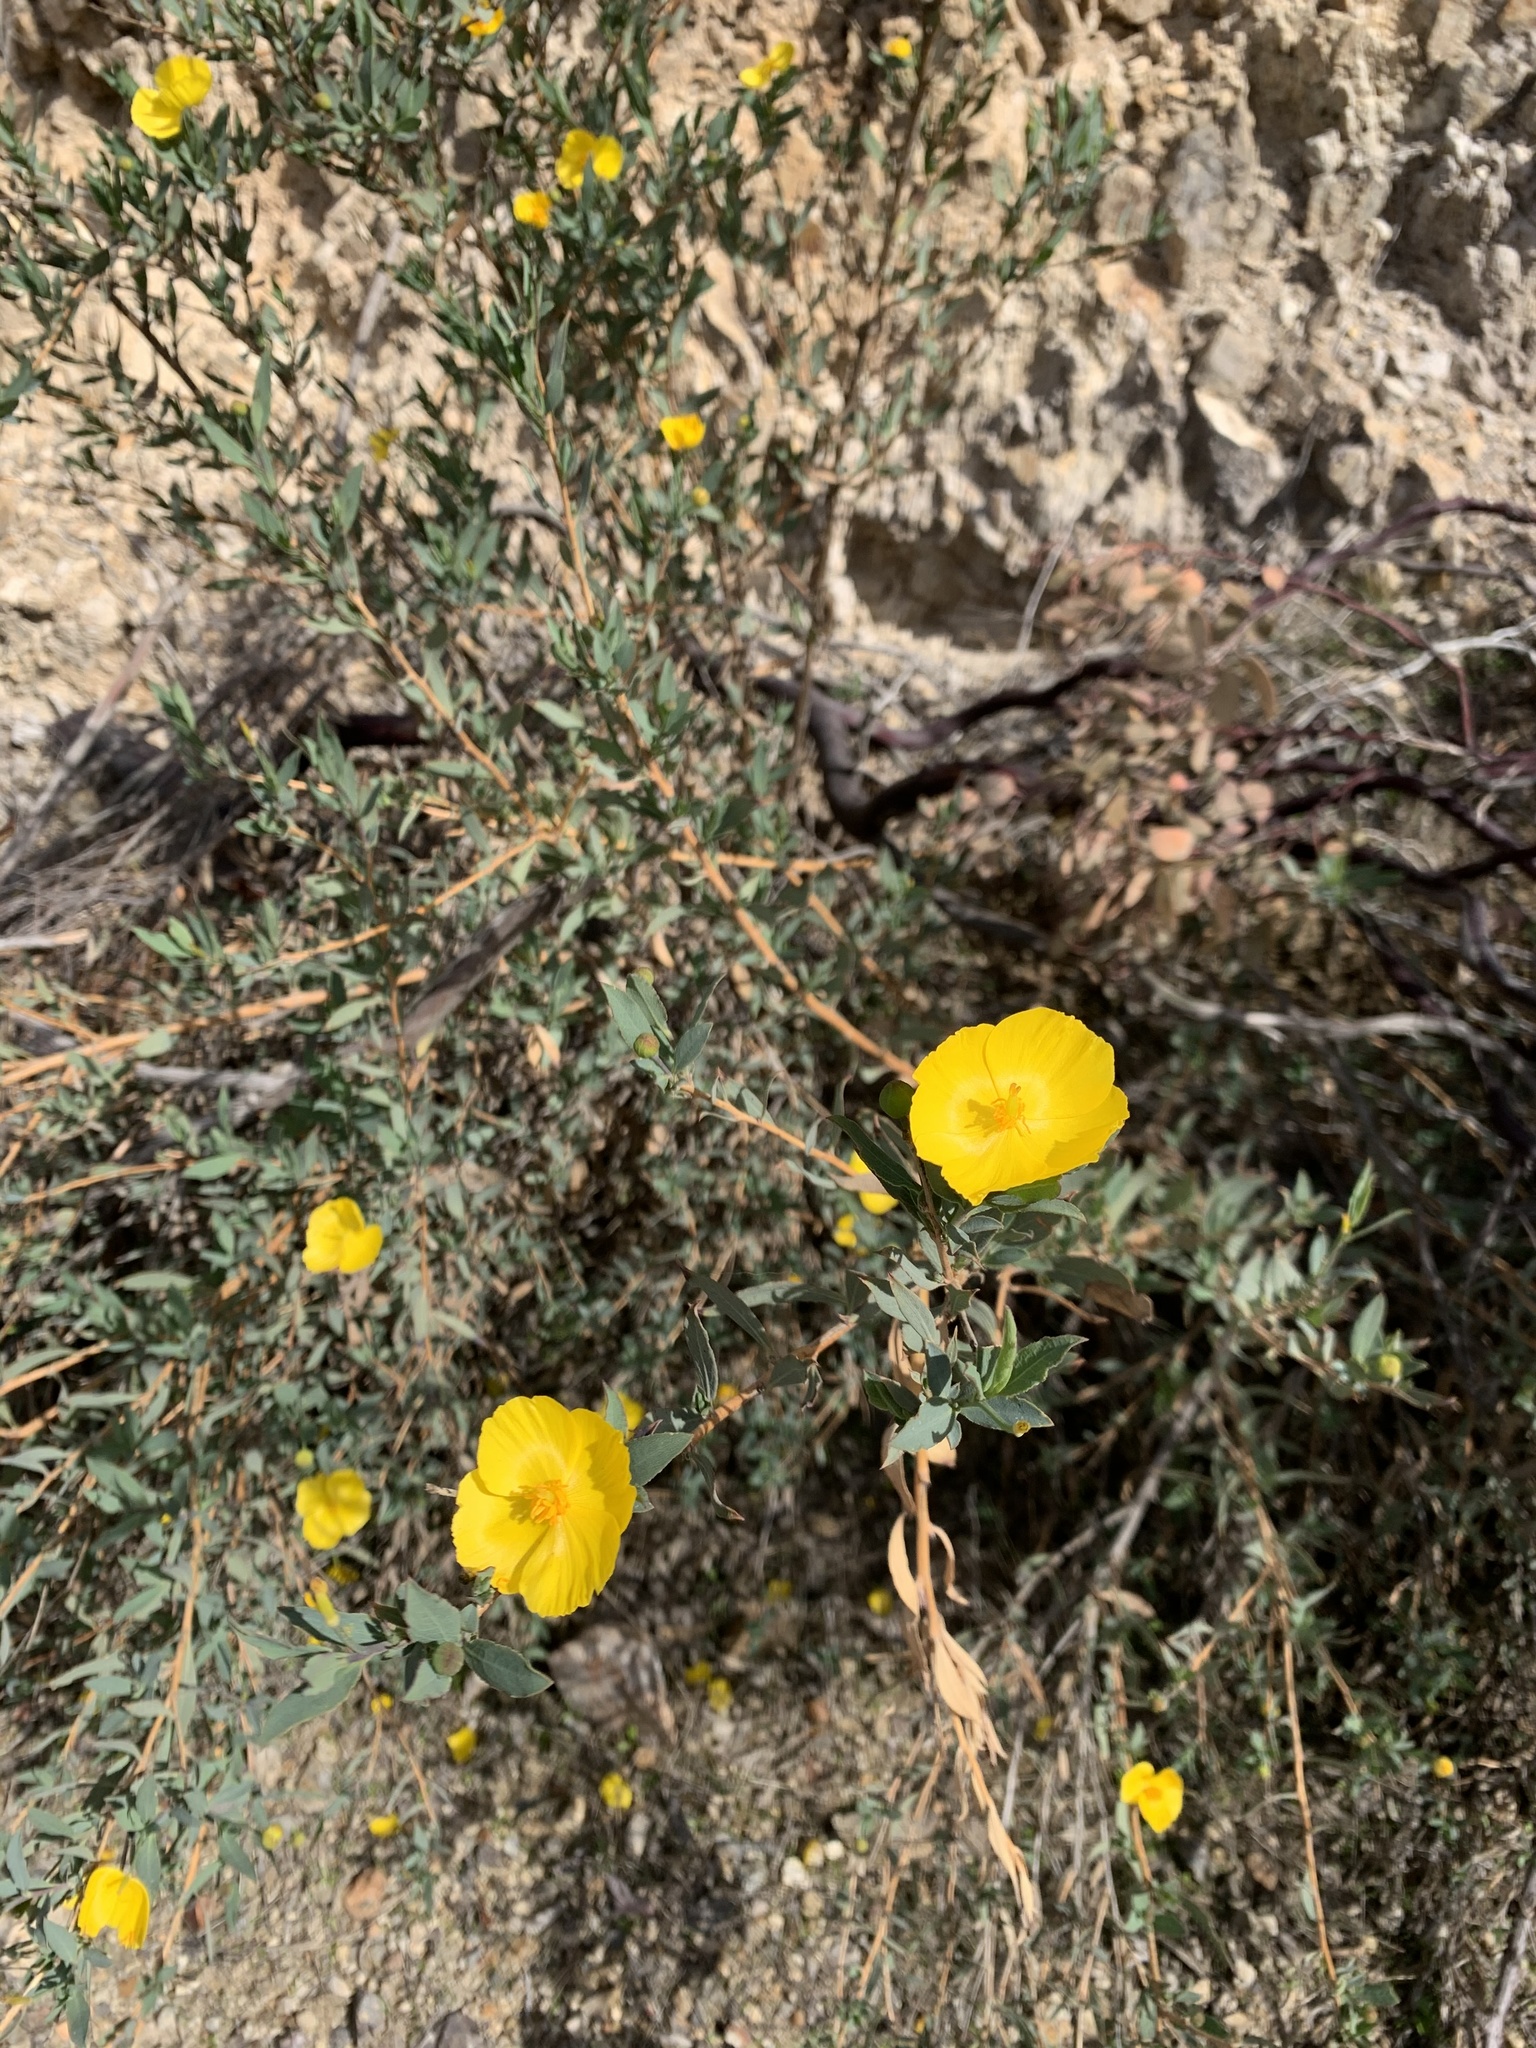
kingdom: Plantae
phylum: Tracheophyta
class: Magnoliopsida
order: Ranunculales
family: Papaveraceae
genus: Dendromecon
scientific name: Dendromecon rigida
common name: Tree poppy
